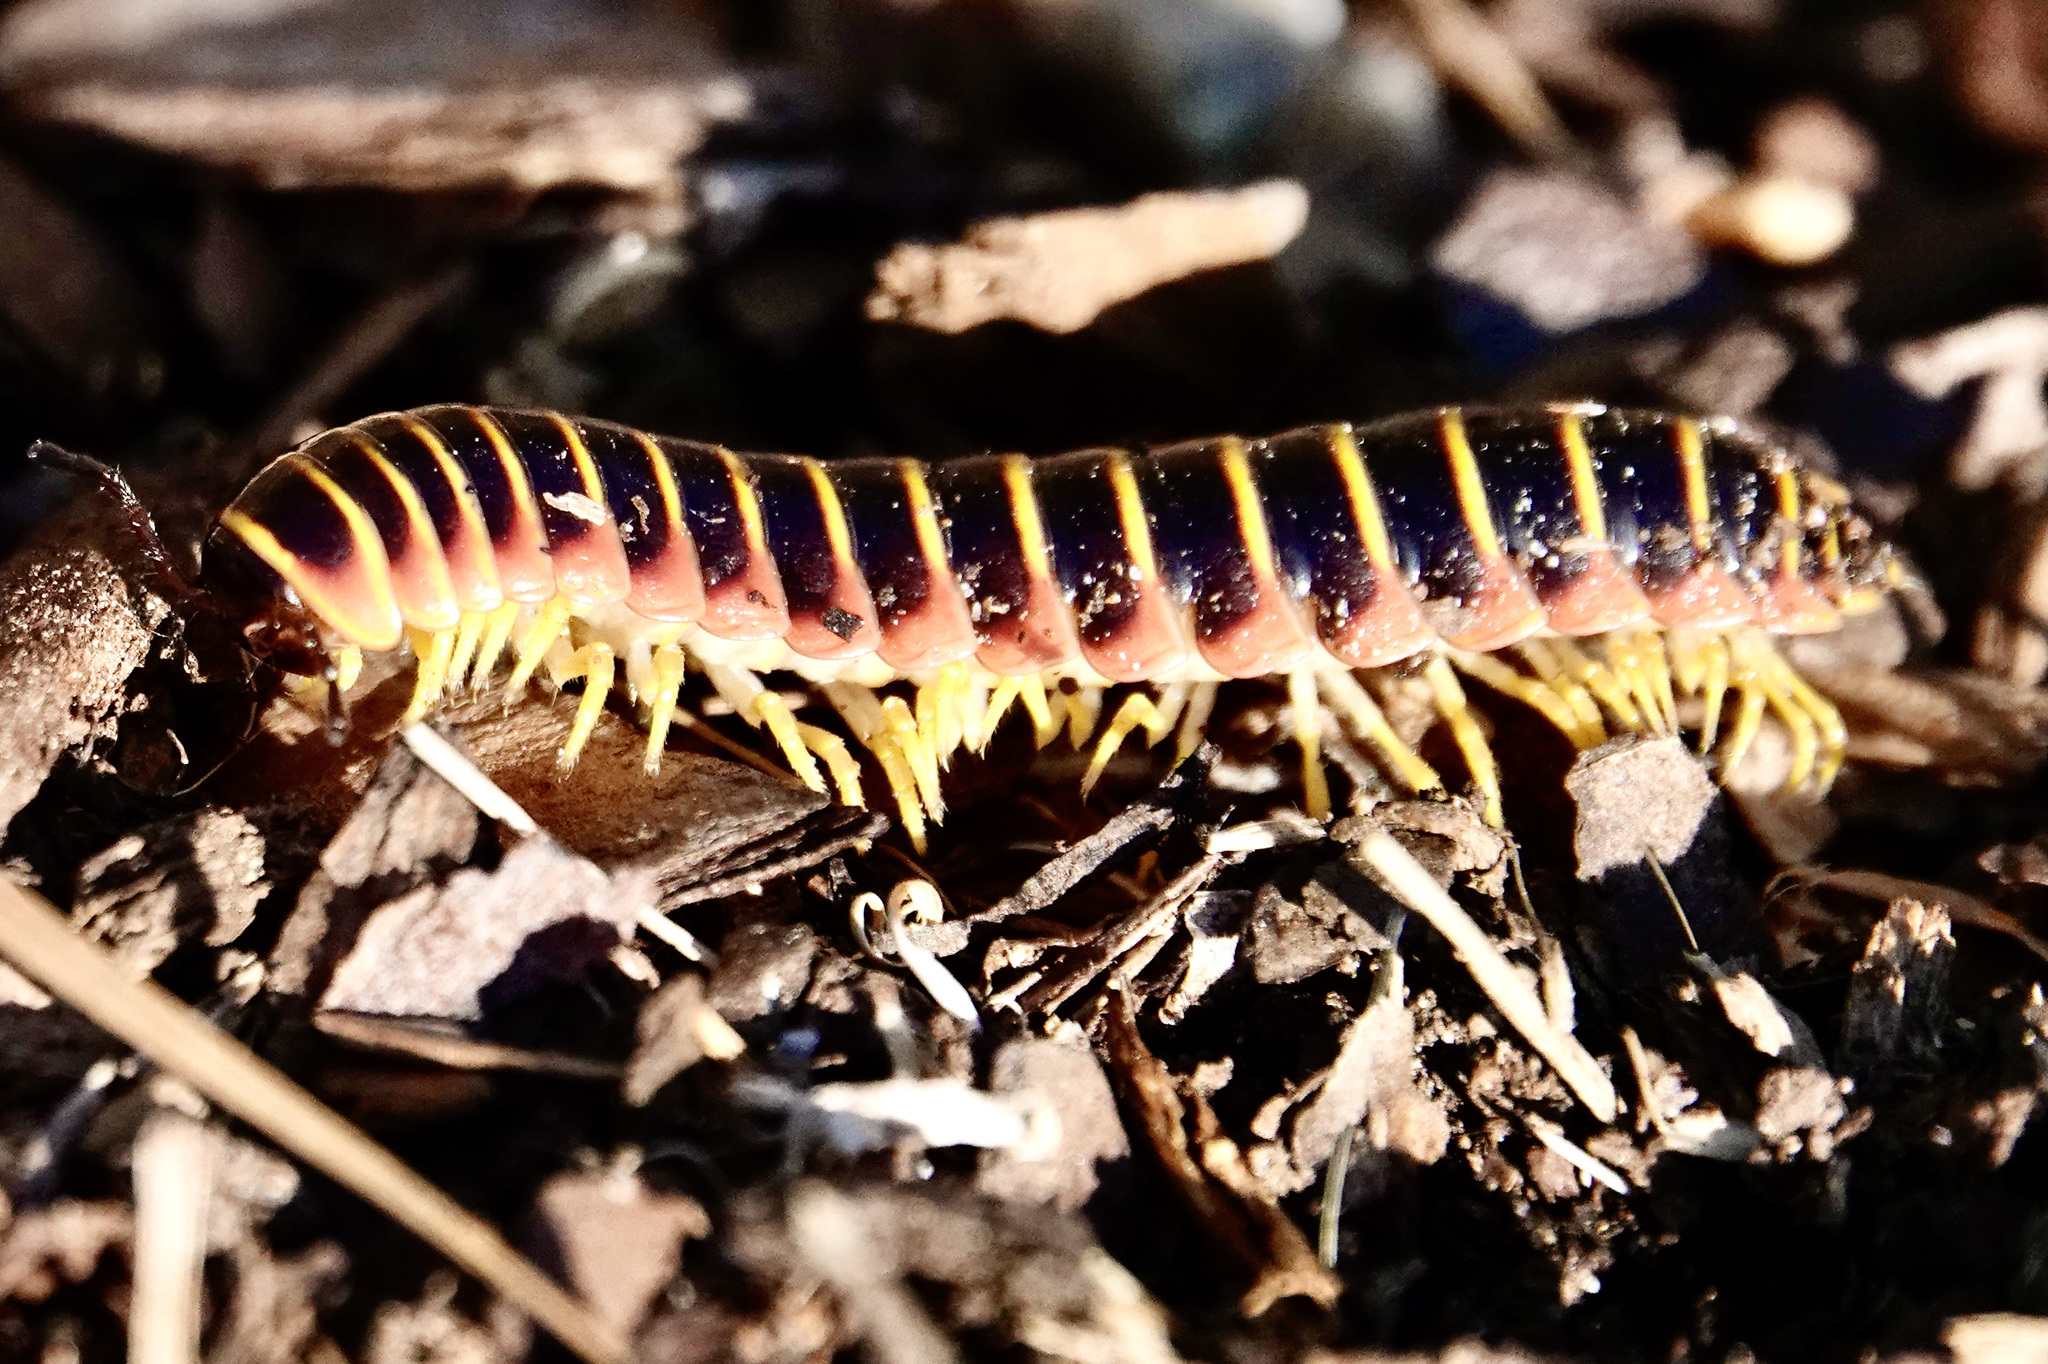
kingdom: Animalia
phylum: Arthropoda
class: Diplopoda
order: Polydesmida
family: Xystodesmidae
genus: Apheloria
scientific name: Apheloria virginiensis
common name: Black-and-gold flat millipede
